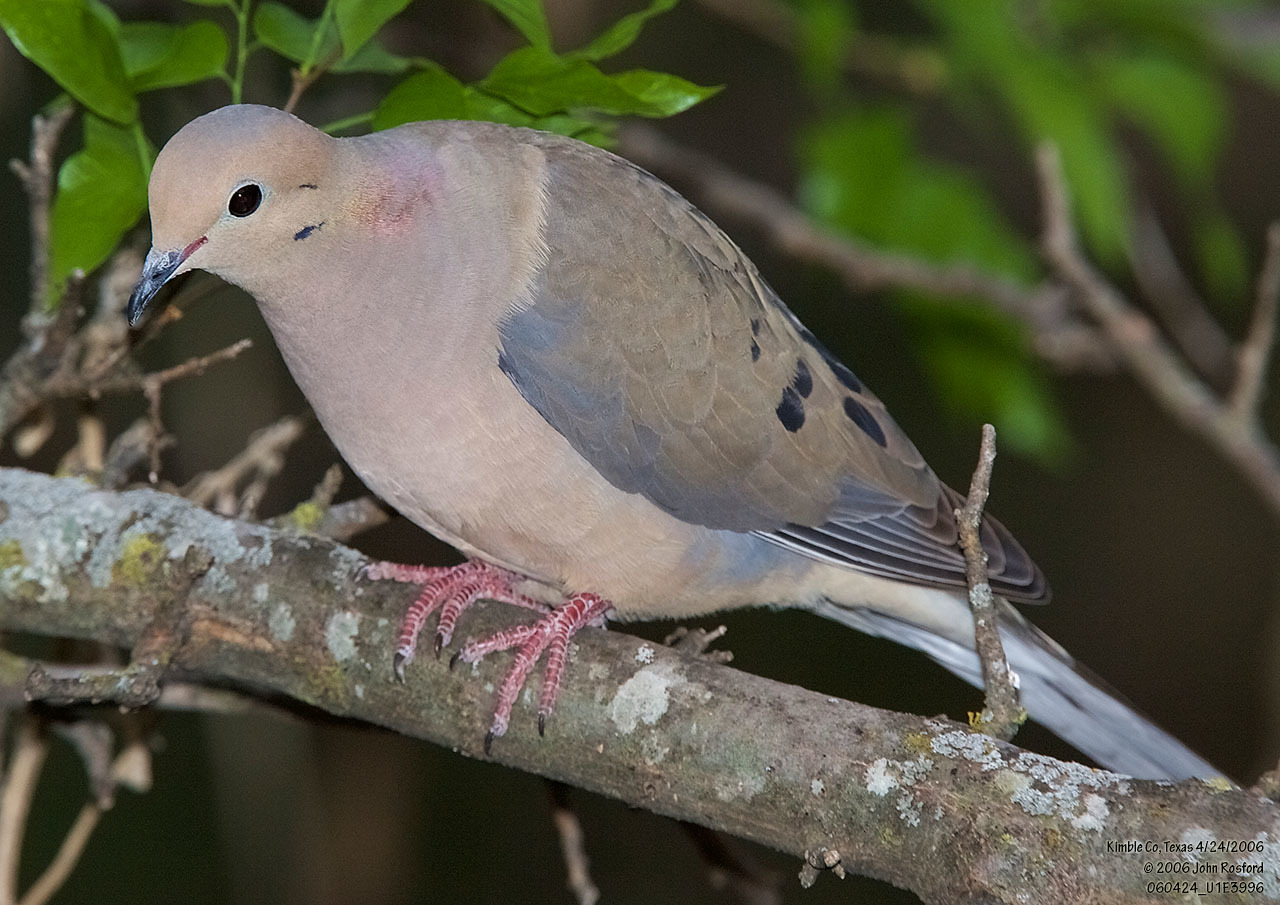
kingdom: Animalia
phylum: Chordata
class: Aves
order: Columbiformes
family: Columbidae
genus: Zenaida
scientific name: Zenaida macroura
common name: Mourning dove
